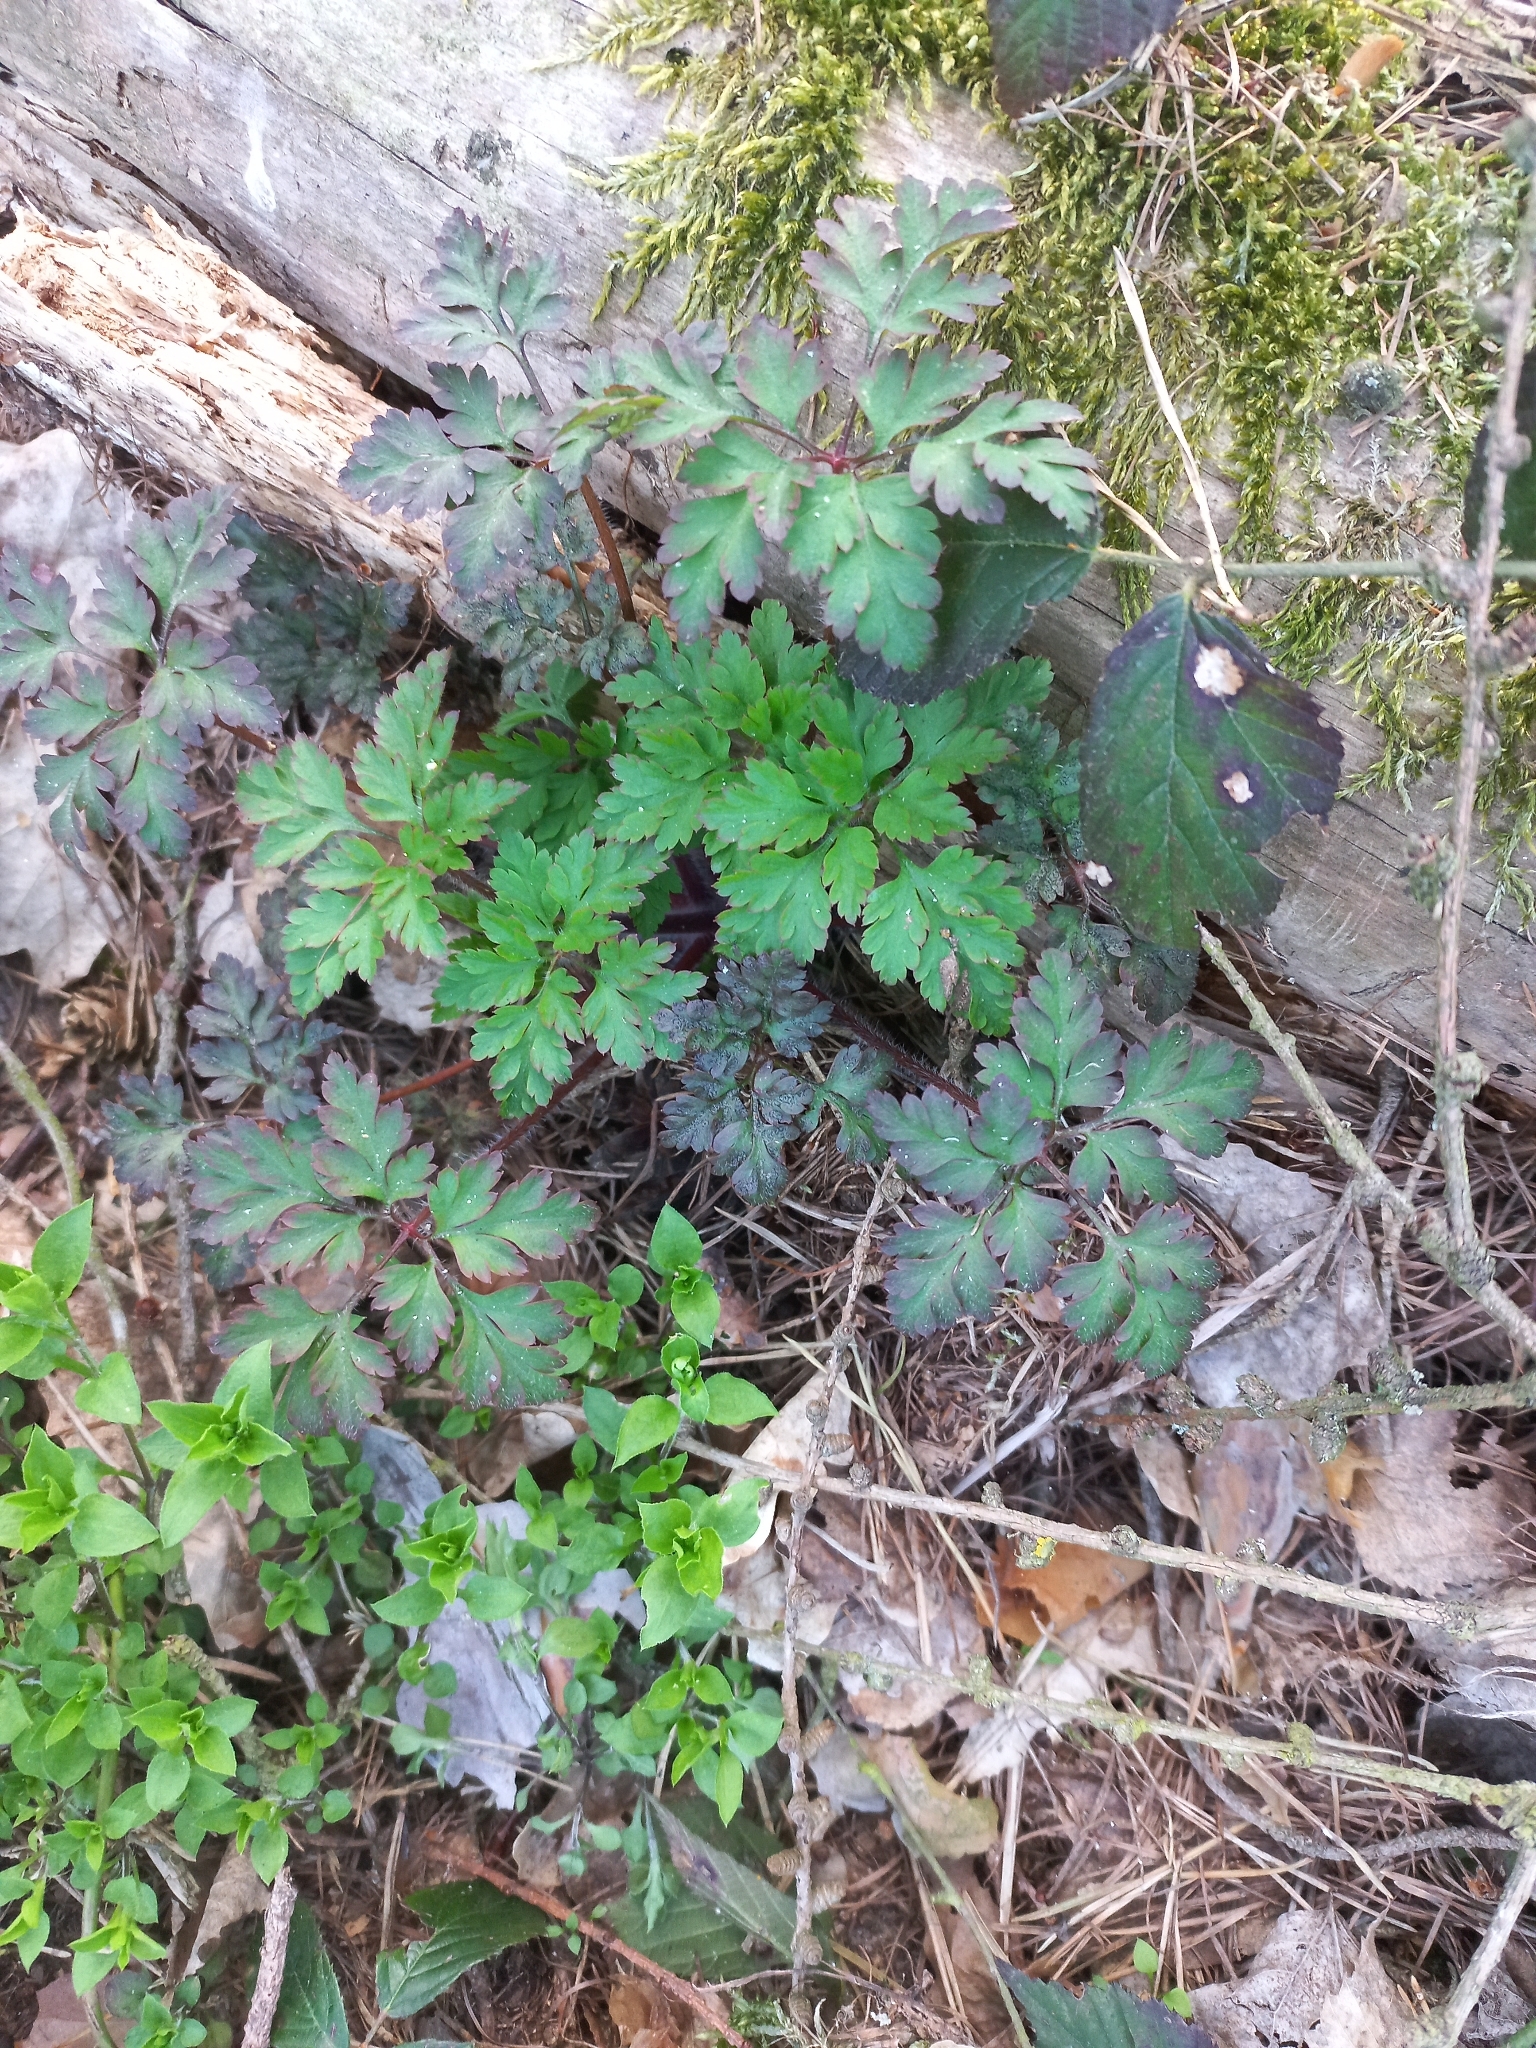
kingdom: Plantae
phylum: Tracheophyta
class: Magnoliopsida
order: Geraniales
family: Geraniaceae
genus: Geranium
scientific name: Geranium robertianum
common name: Herb-robert
